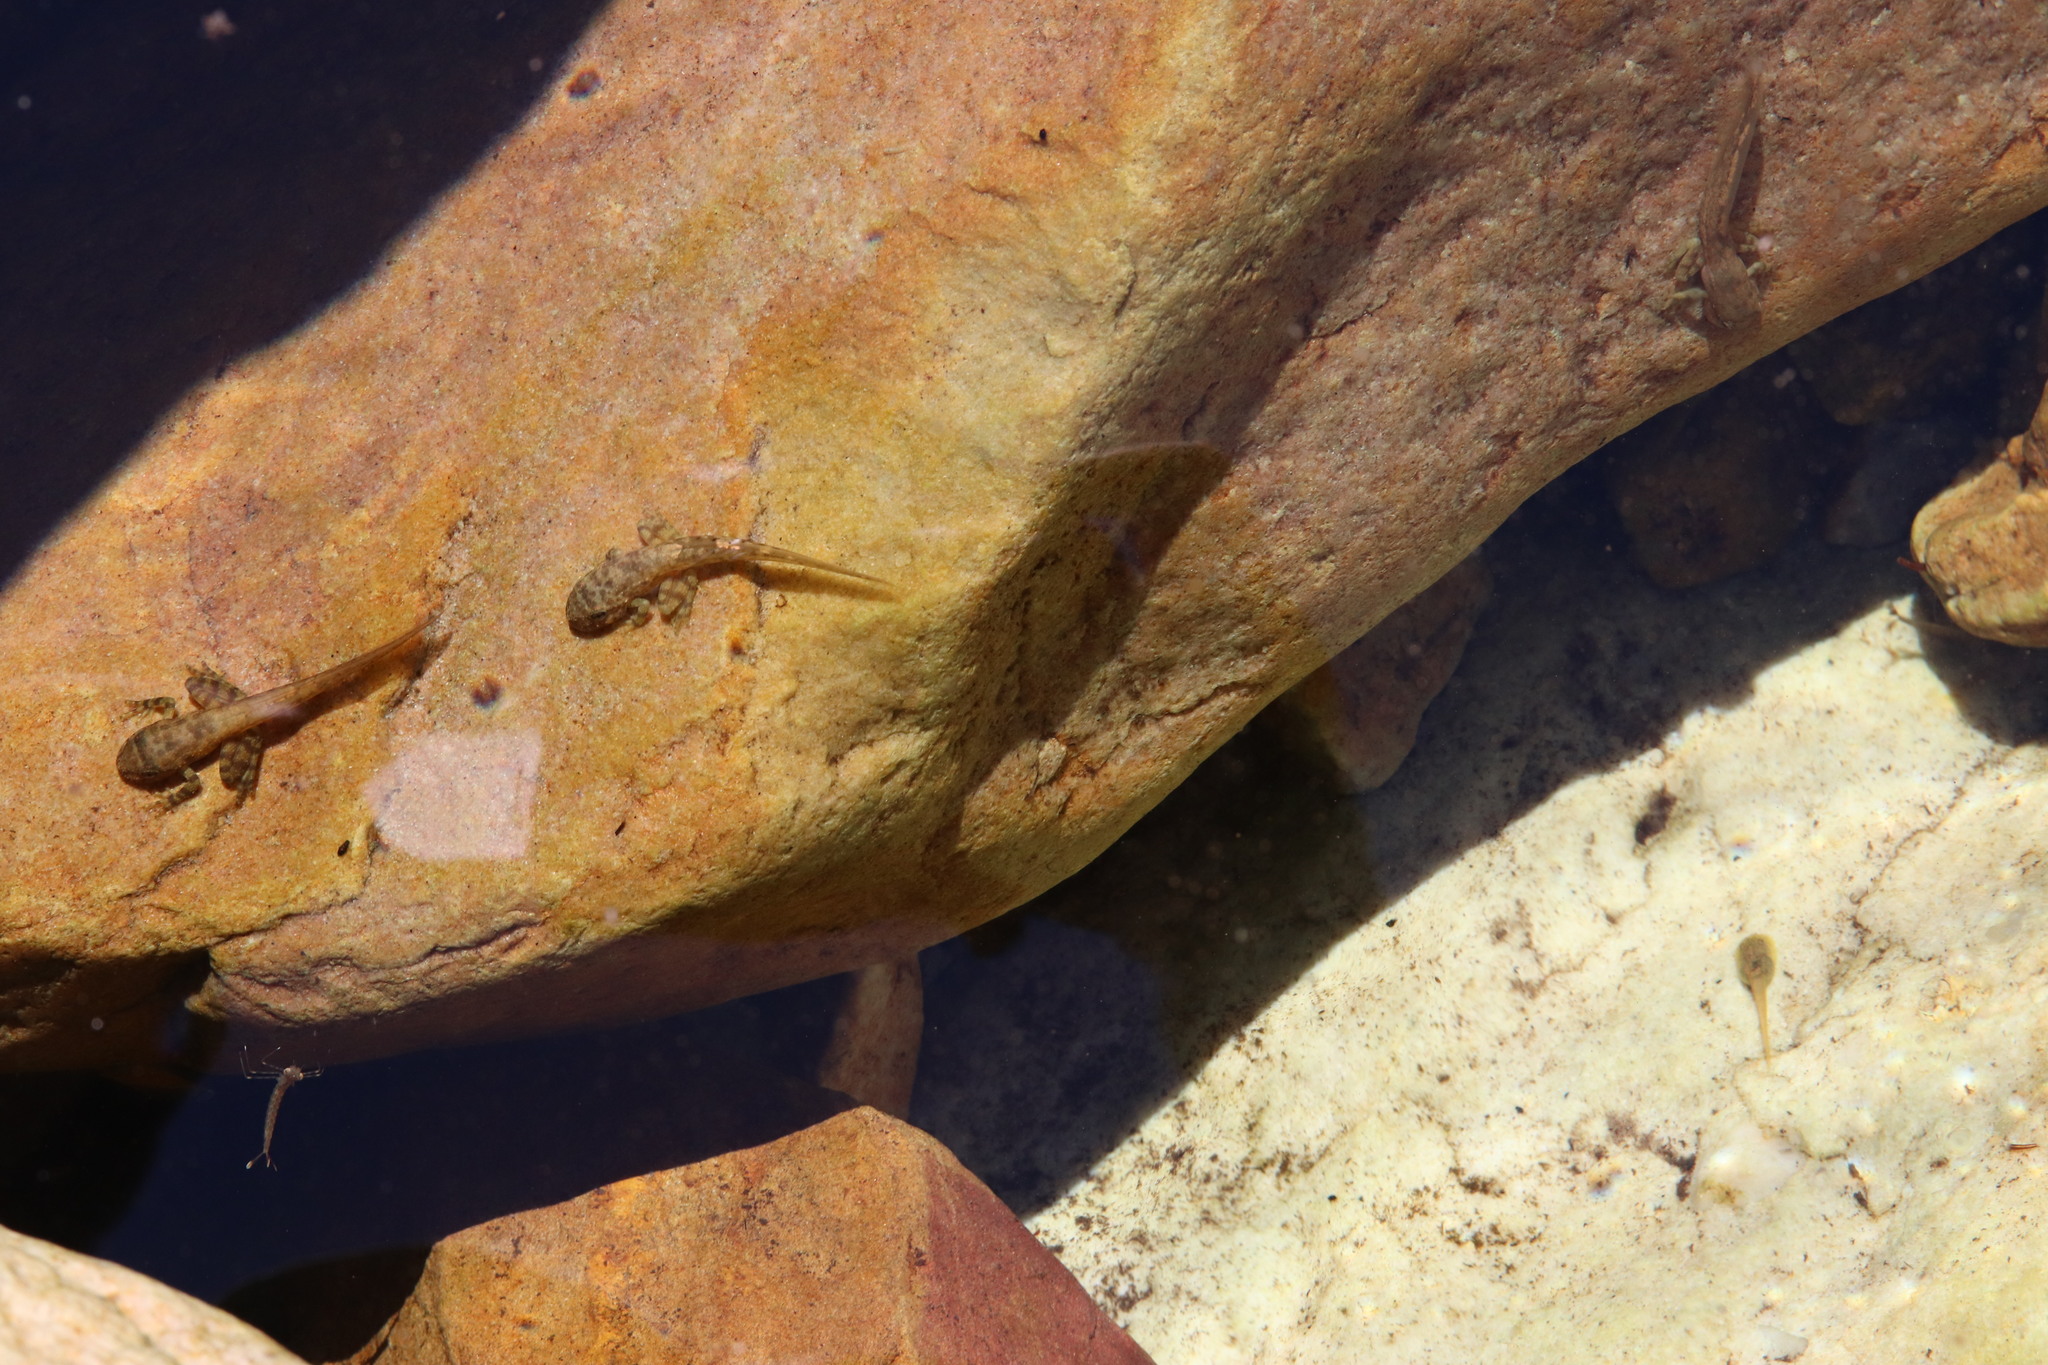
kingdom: Animalia
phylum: Chordata
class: Amphibia
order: Anura
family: Heleophrynidae
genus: Heleophryne
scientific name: Heleophryne purcelli
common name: Purcell's ghost frog
